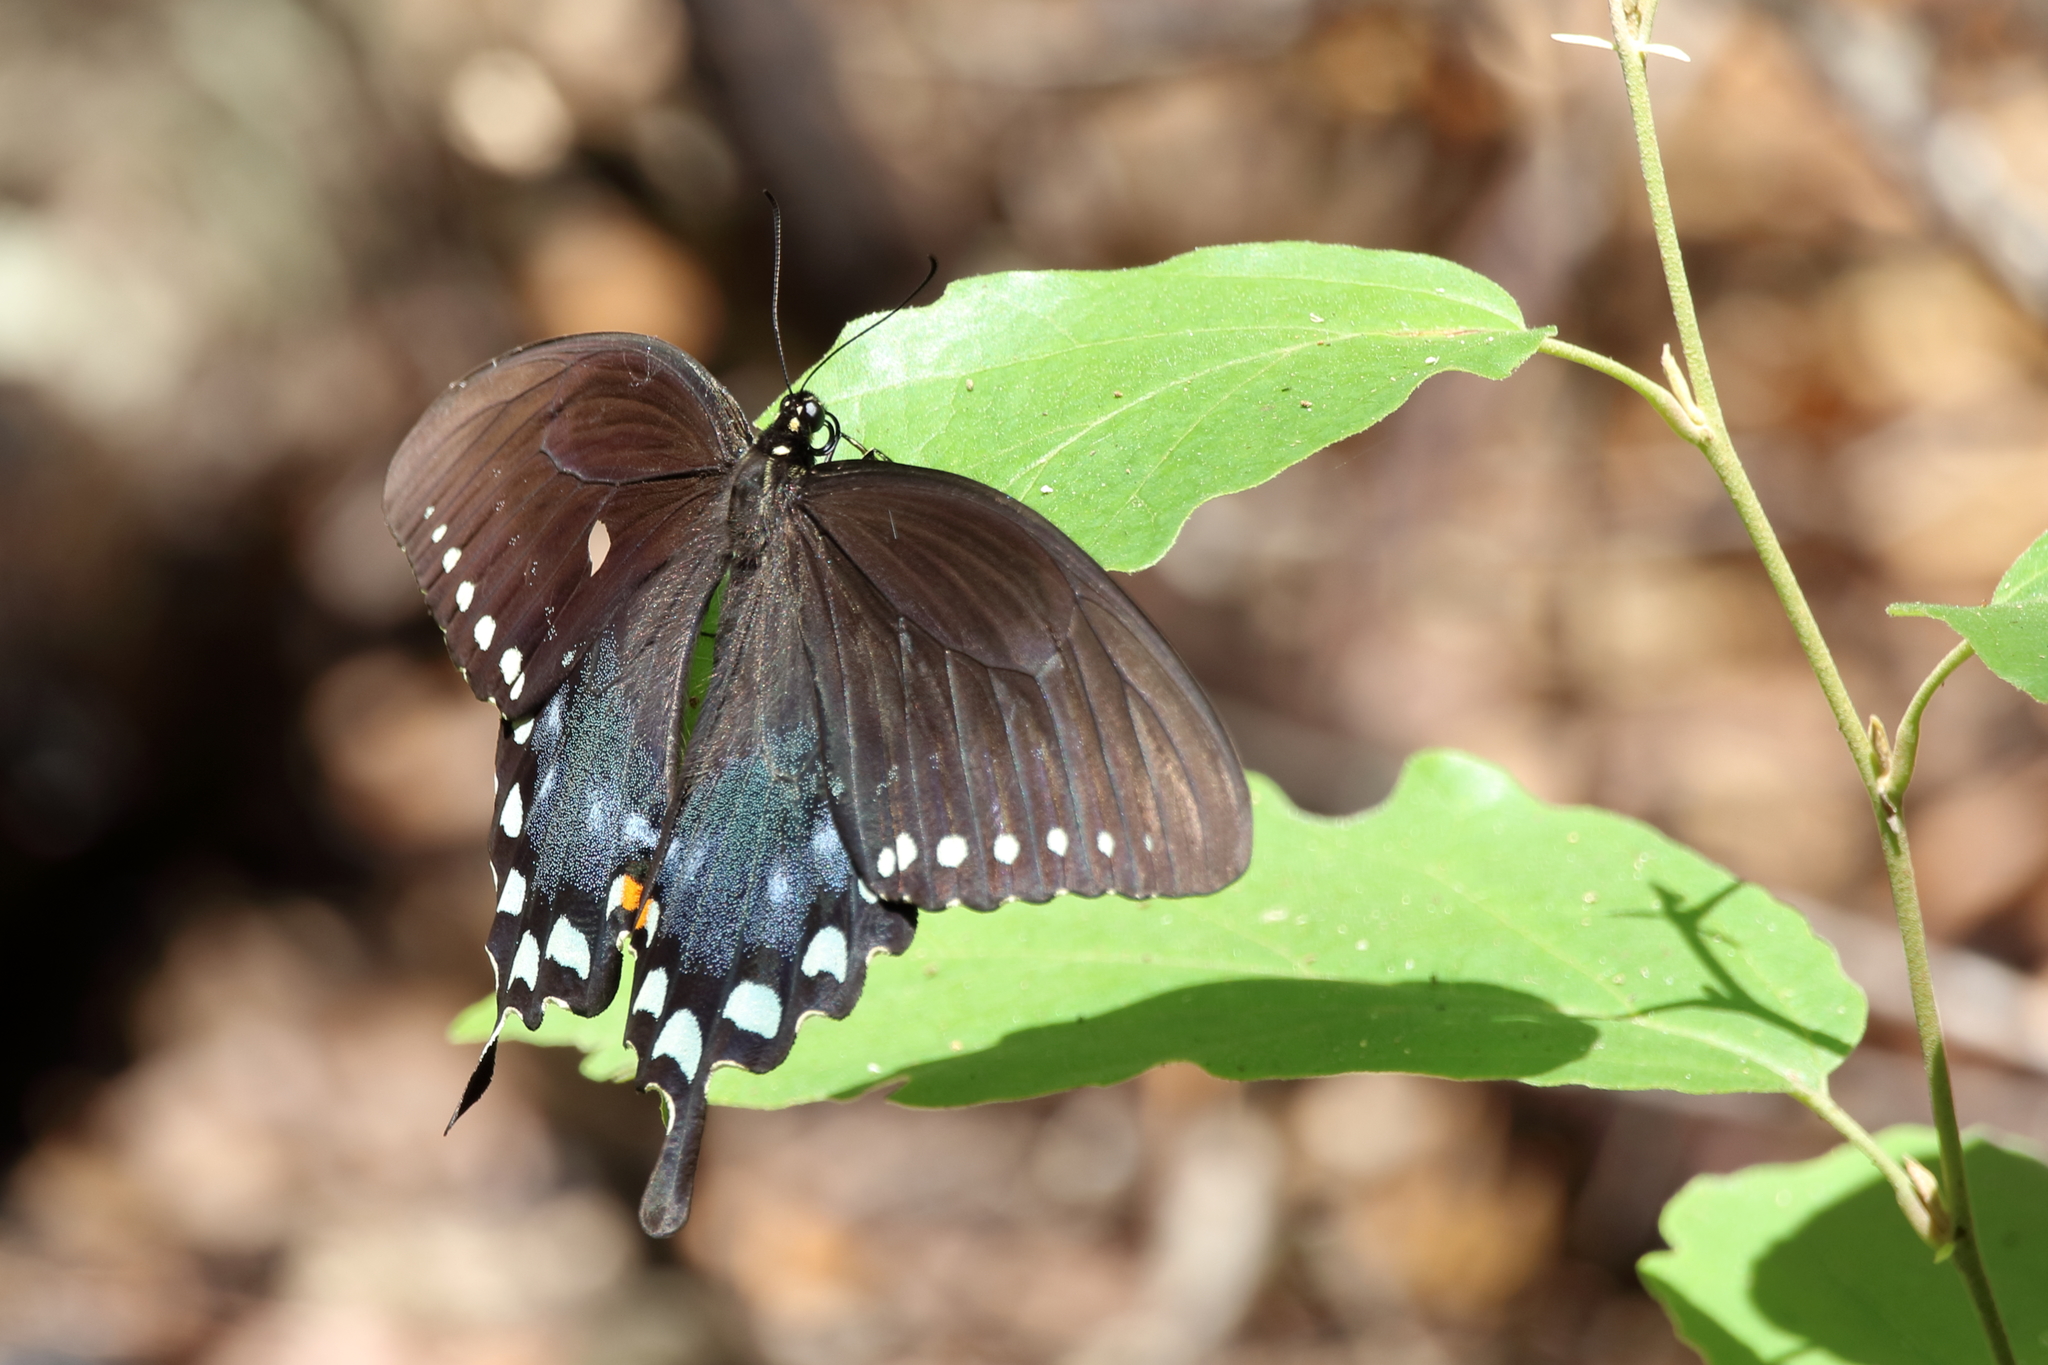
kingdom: Animalia
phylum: Arthropoda
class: Insecta
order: Lepidoptera
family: Papilionidae
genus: Papilio
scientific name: Papilio troilus
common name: Spicebush swallowtail
